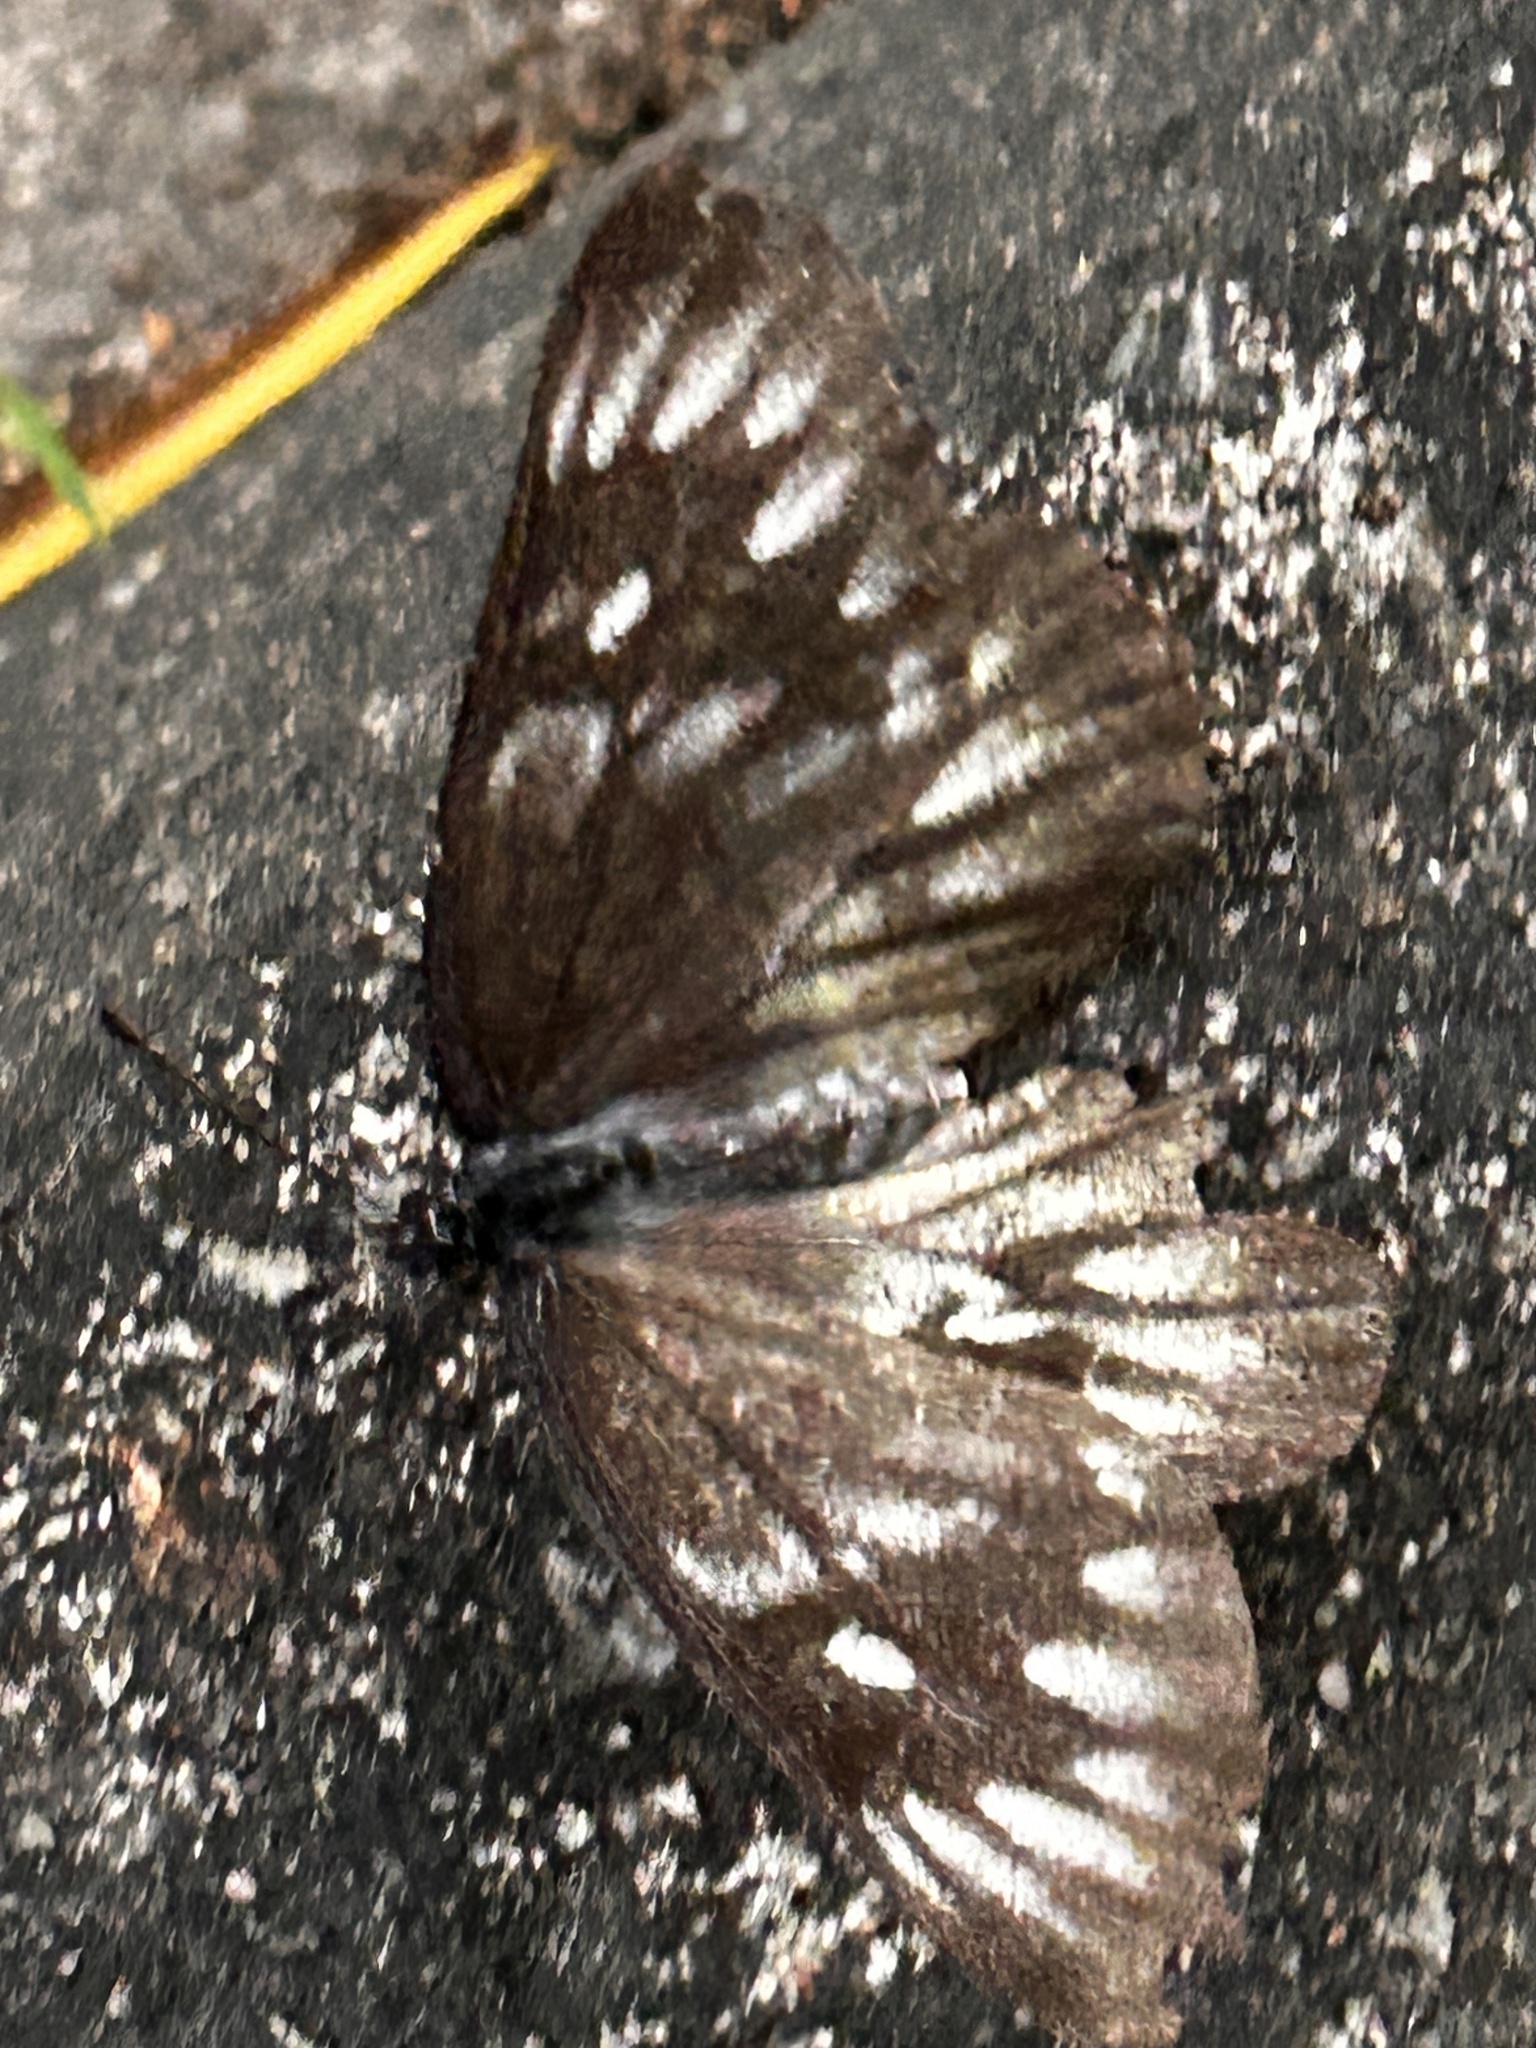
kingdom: Animalia
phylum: Arthropoda
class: Insecta
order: Lepidoptera
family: Pieridae
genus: Delias
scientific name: Delias pasithoe
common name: Red-base jezebel
